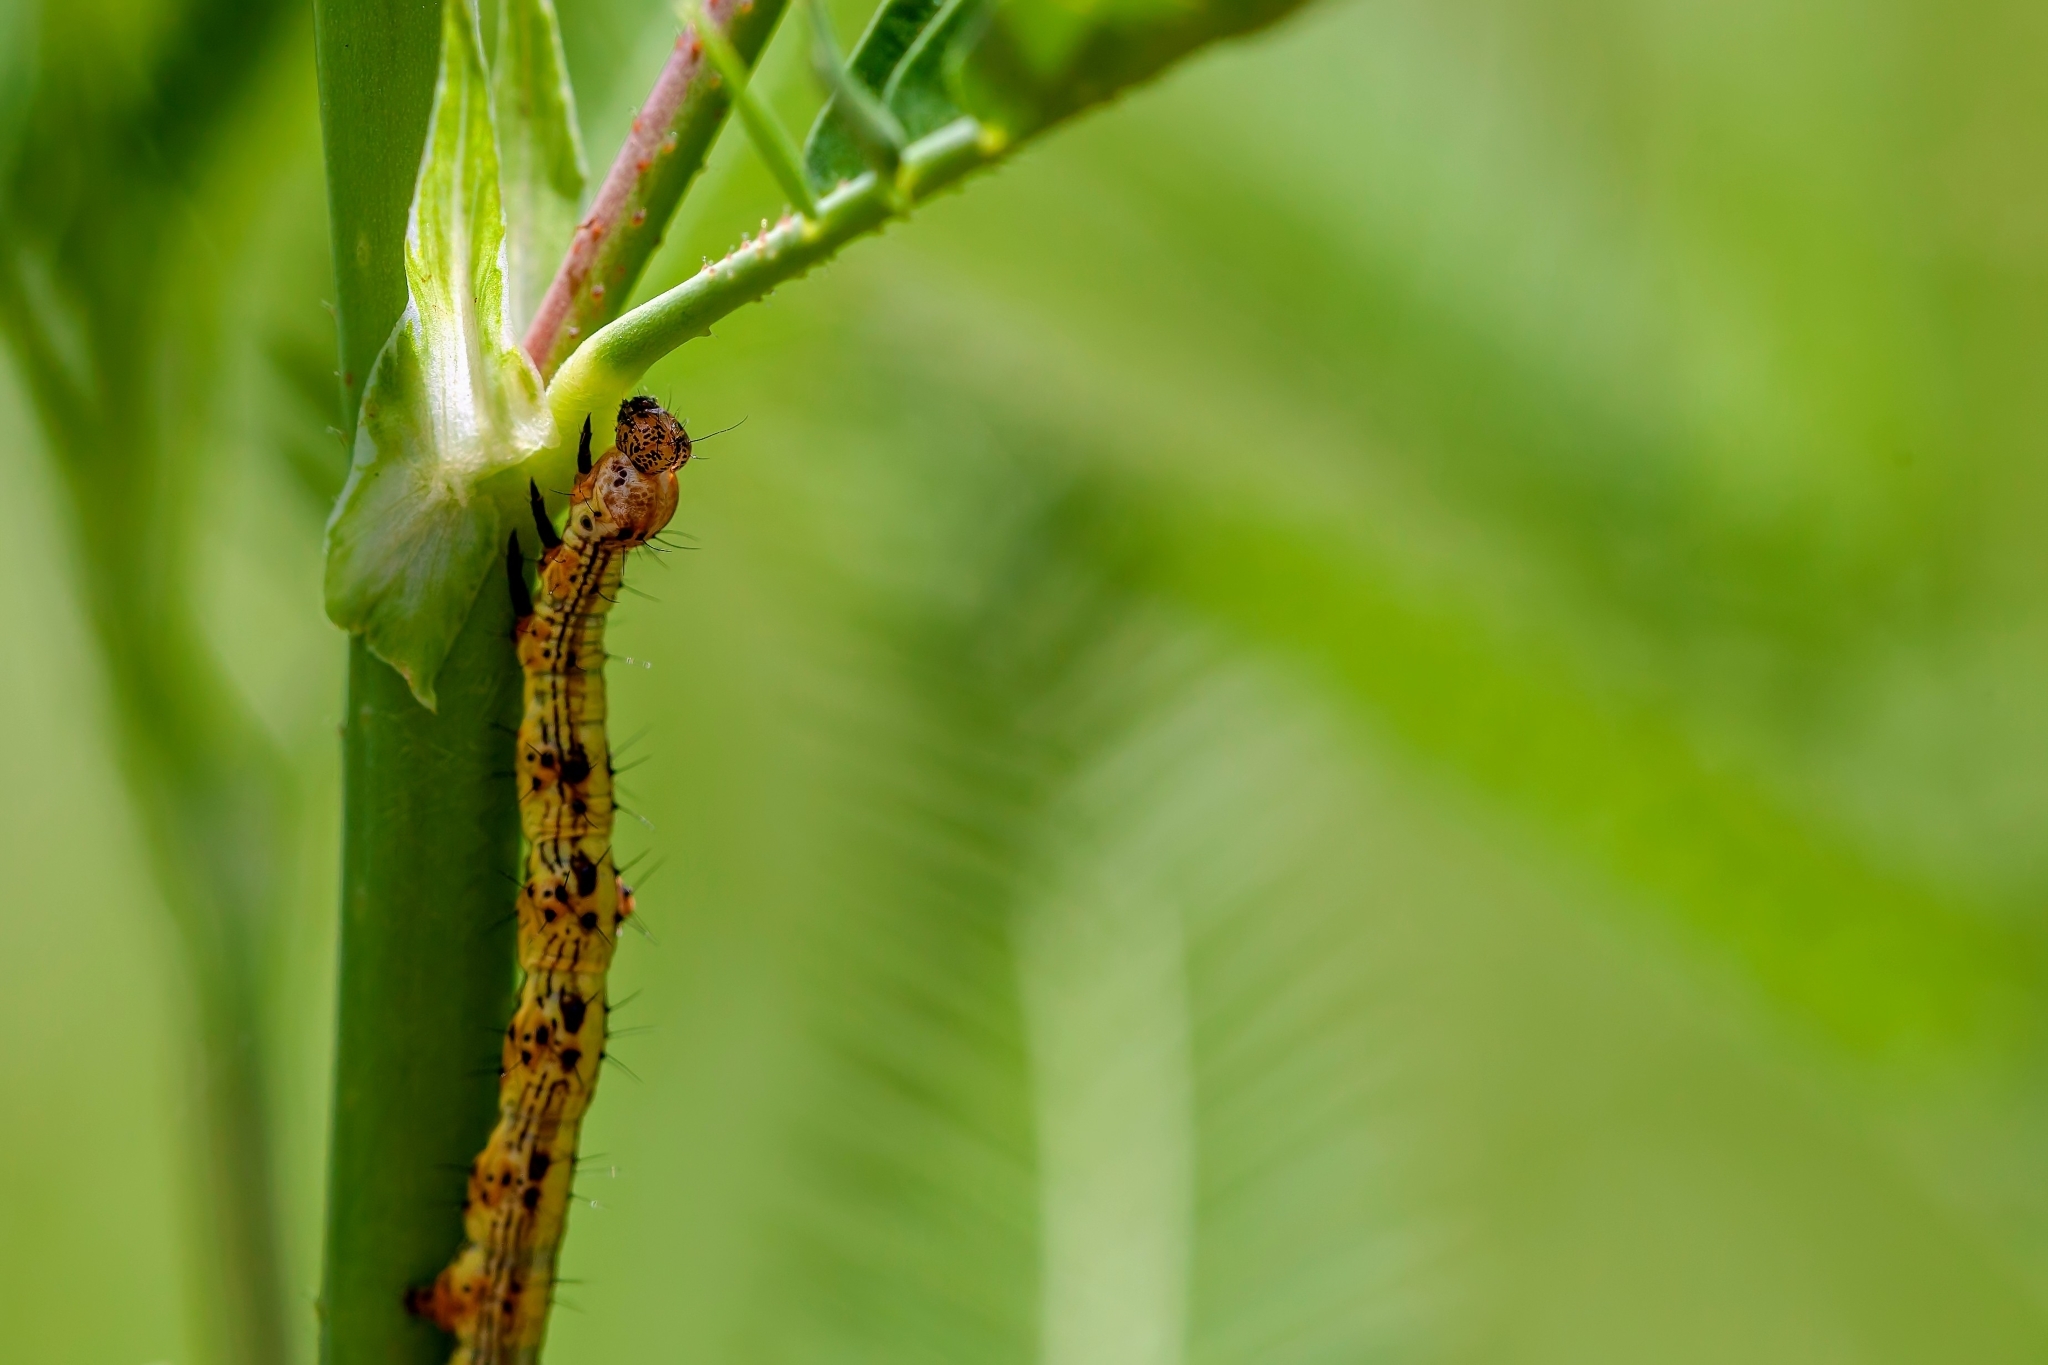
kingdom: Animalia
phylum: Arthropoda
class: Insecta
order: Lepidoptera
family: Erebidae
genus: Selenisa
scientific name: Selenisa sueroides
